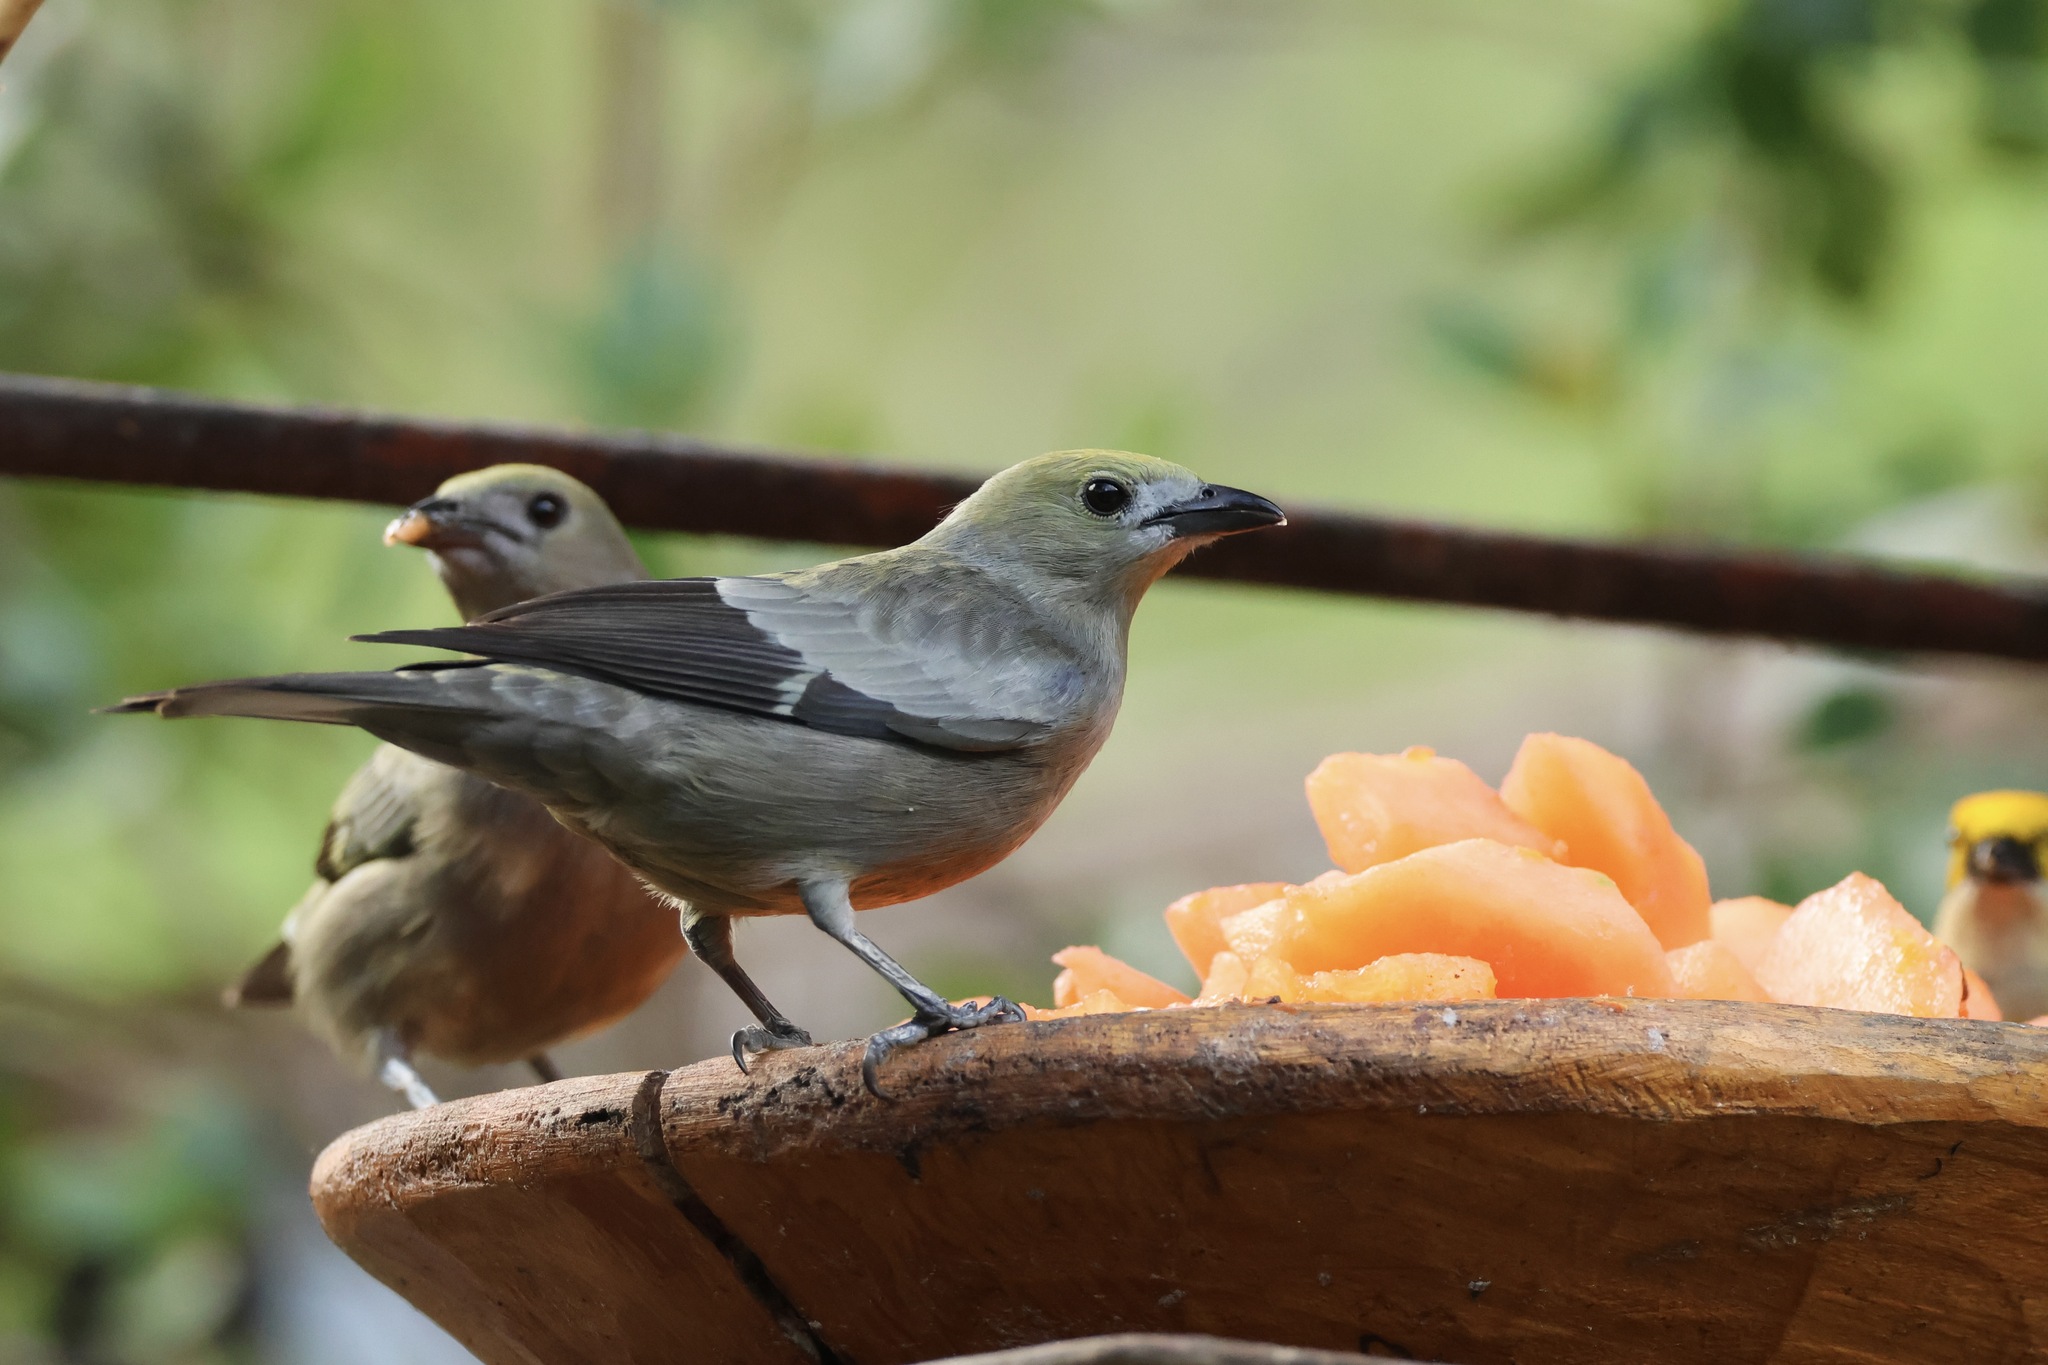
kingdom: Animalia
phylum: Chordata
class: Aves
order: Passeriformes
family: Thraupidae
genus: Thraupis
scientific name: Thraupis palmarum
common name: Palm tanager
